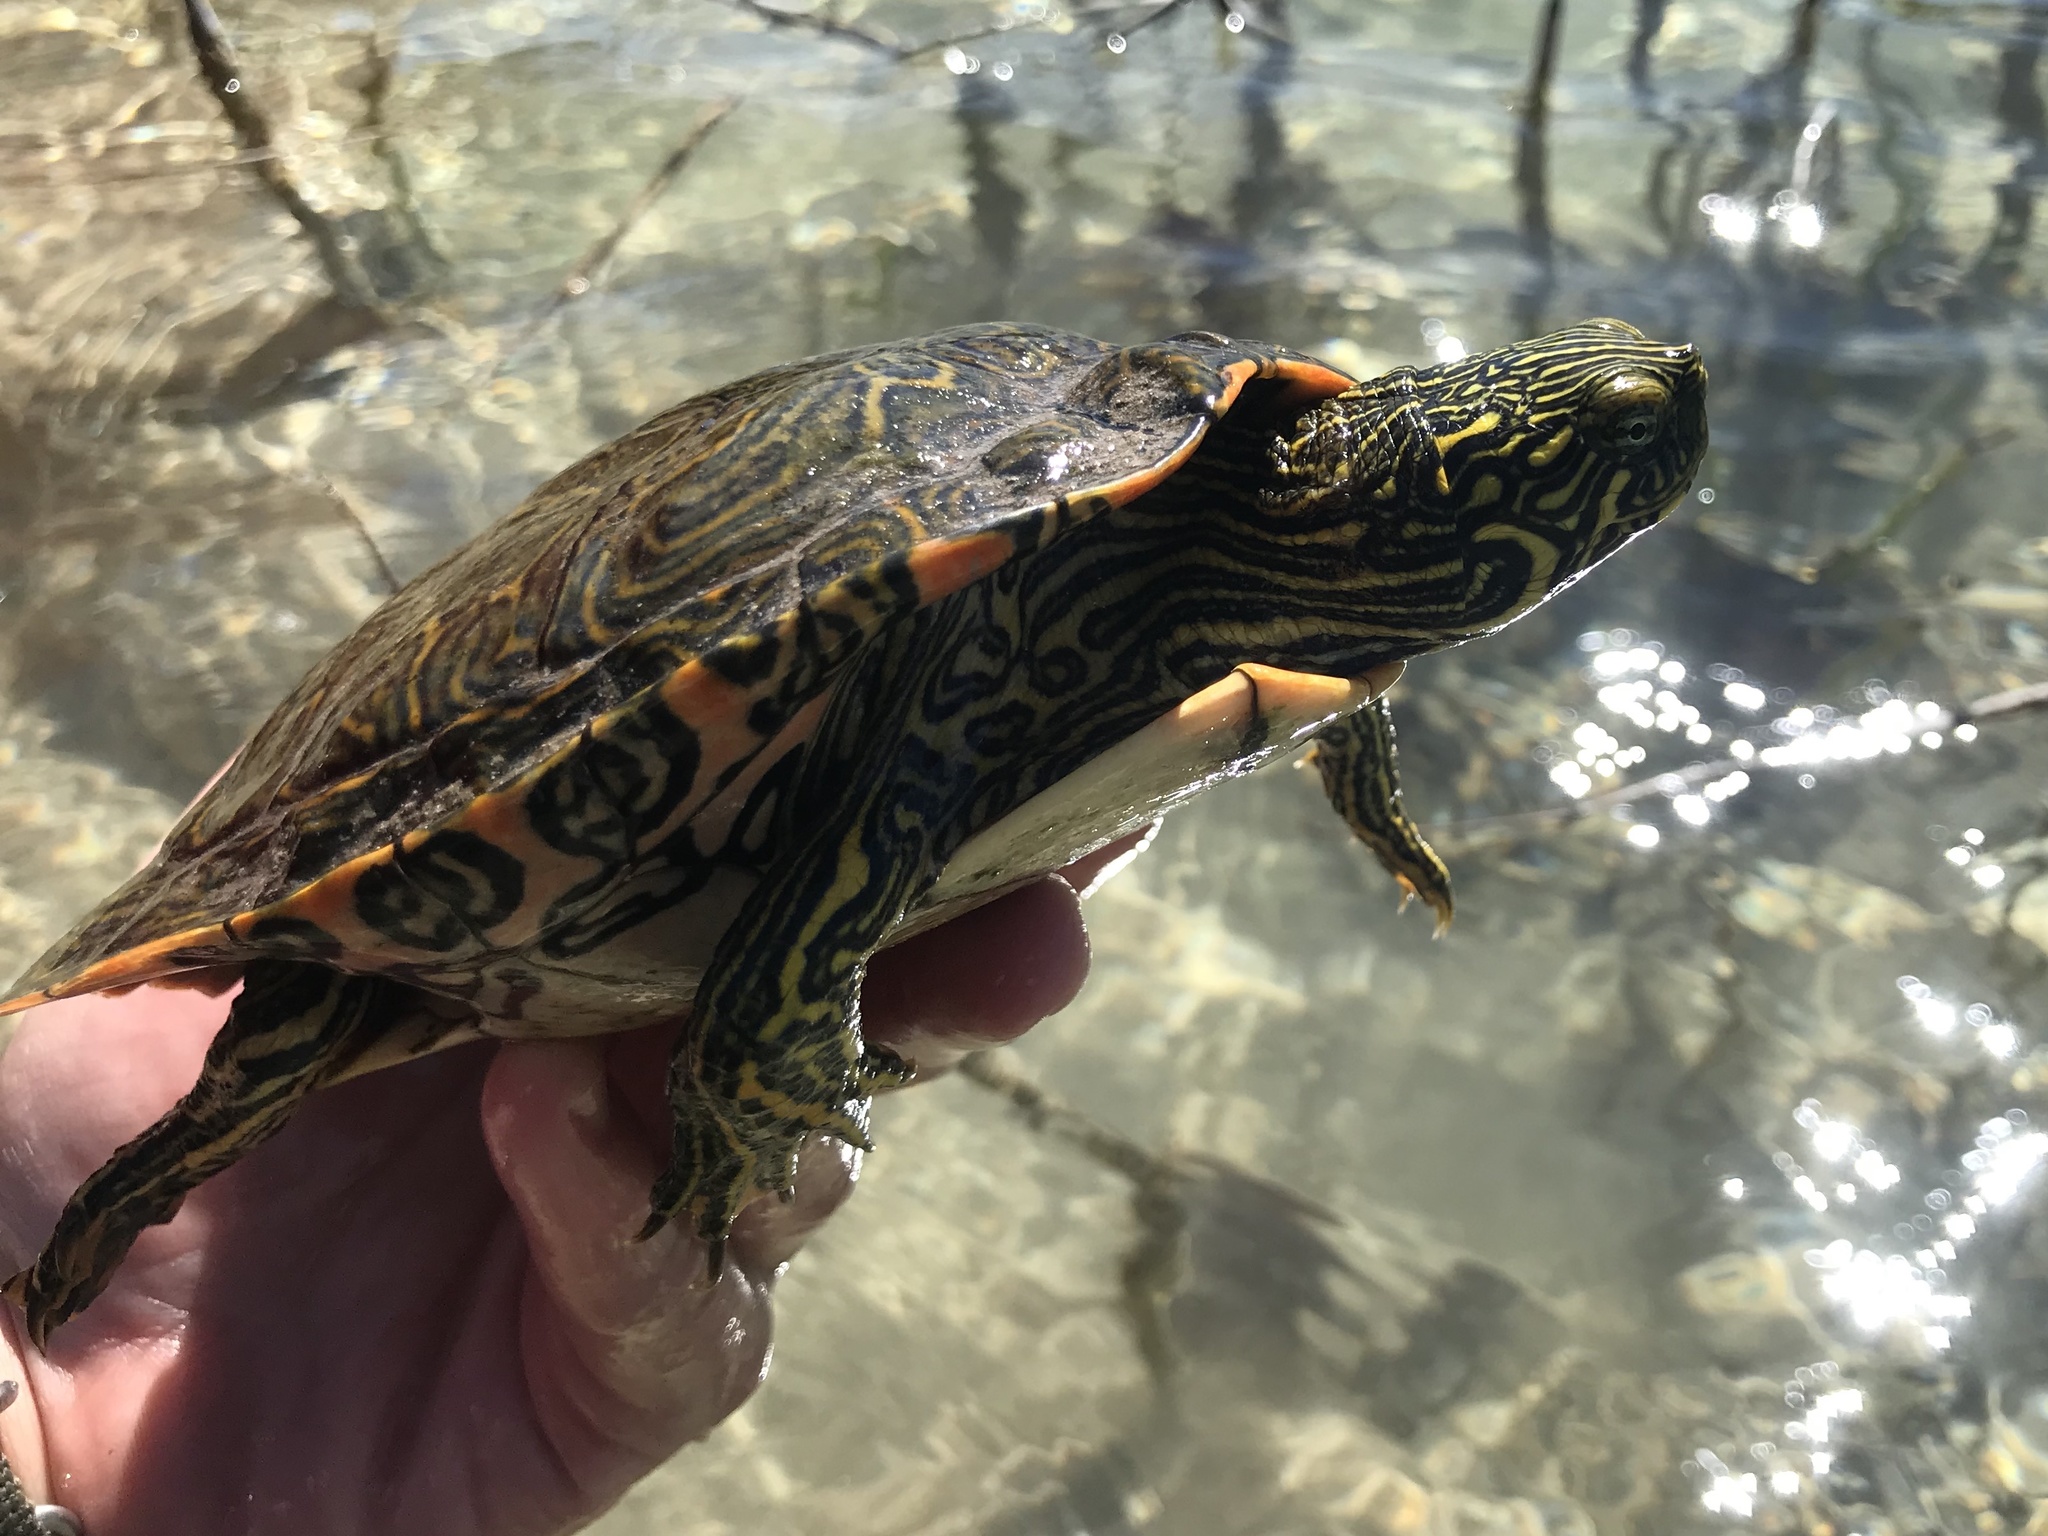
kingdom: Animalia
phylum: Chordata
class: Testudines
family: Emydidae
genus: Pseudemys
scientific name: Pseudemys texana
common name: Texas river cooter
